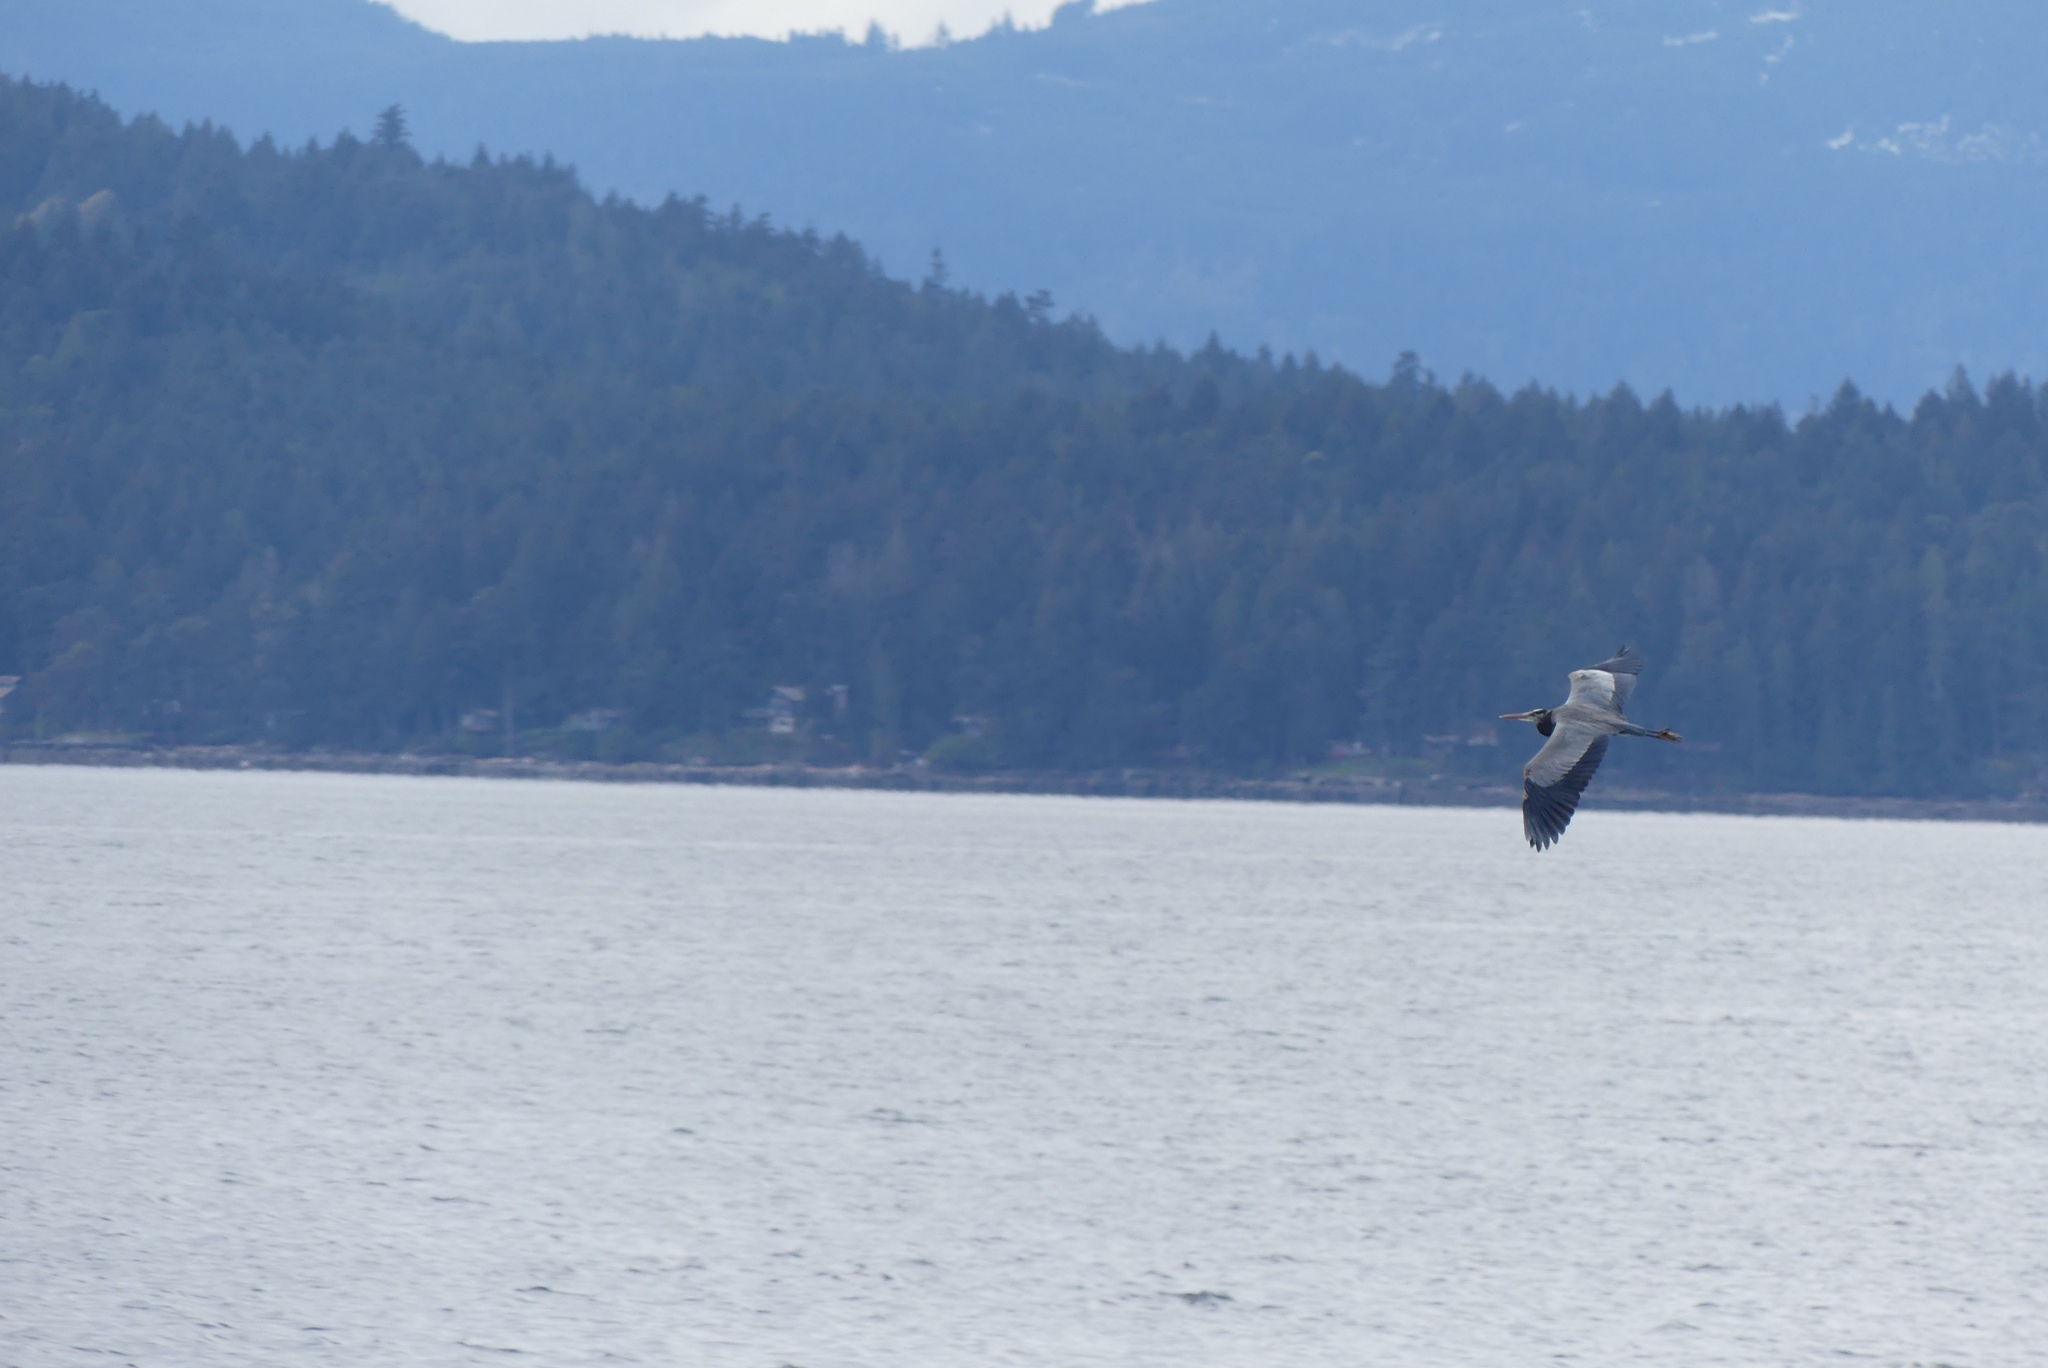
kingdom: Animalia
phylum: Chordata
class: Aves
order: Pelecaniformes
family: Ardeidae
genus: Ardea
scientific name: Ardea herodias
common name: Great blue heron
